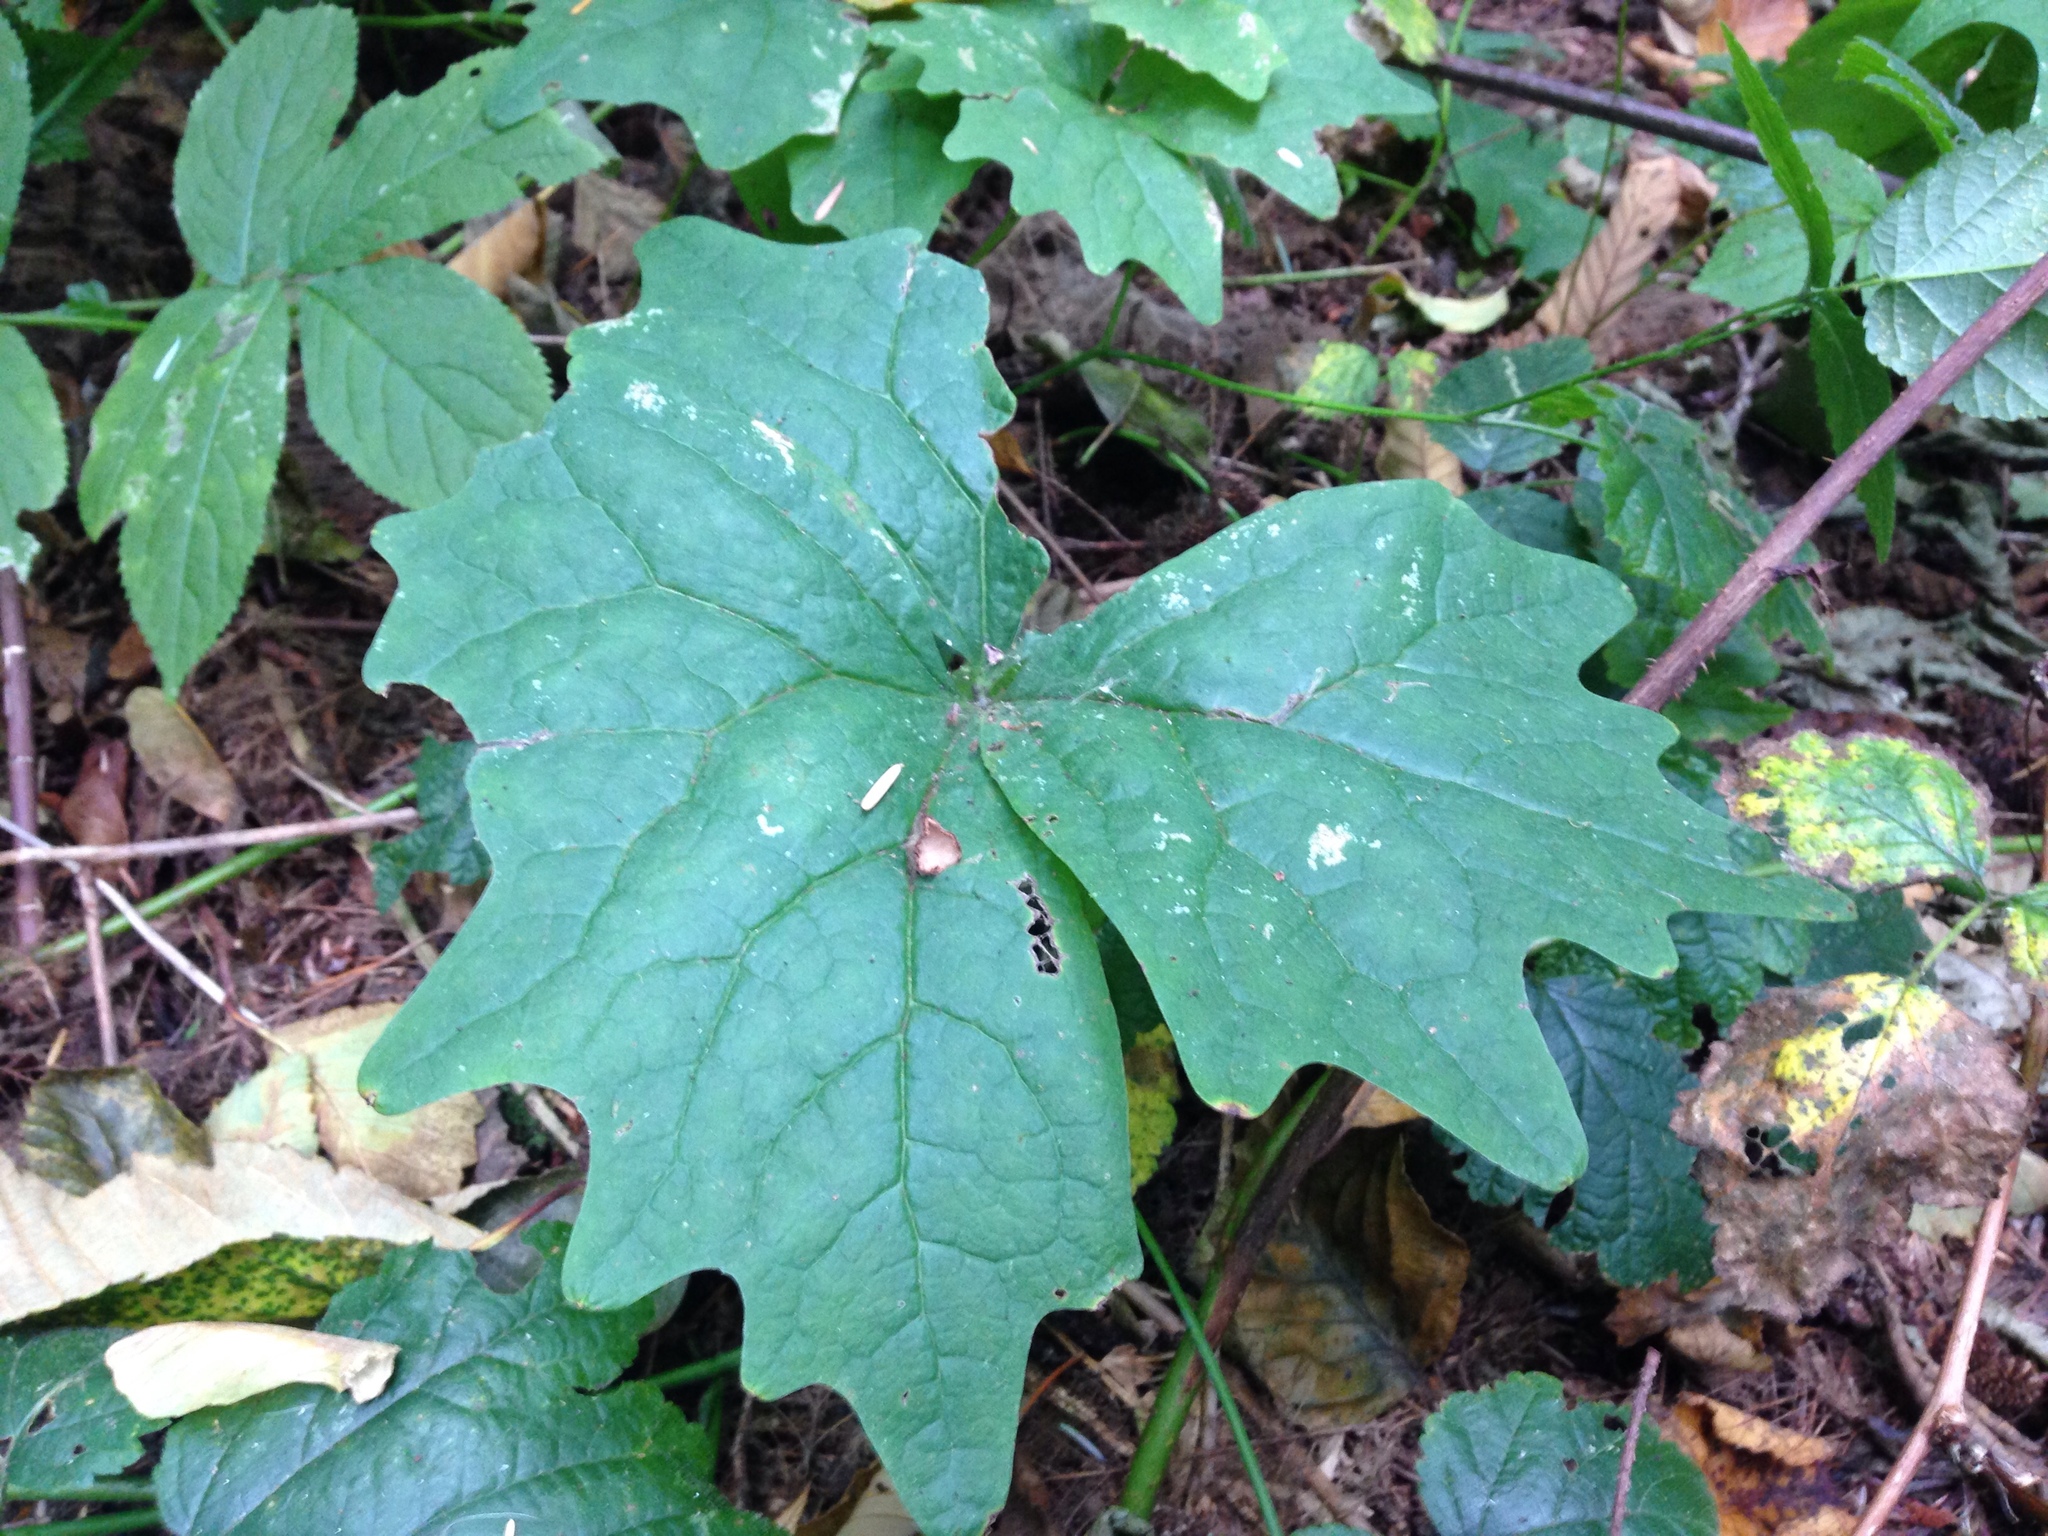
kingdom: Plantae
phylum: Tracheophyta
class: Magnoliopsida
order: Ranunculales
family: Berberidaceae
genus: Achlys
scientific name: Achlys triphylla
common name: Vanilla-leaf
